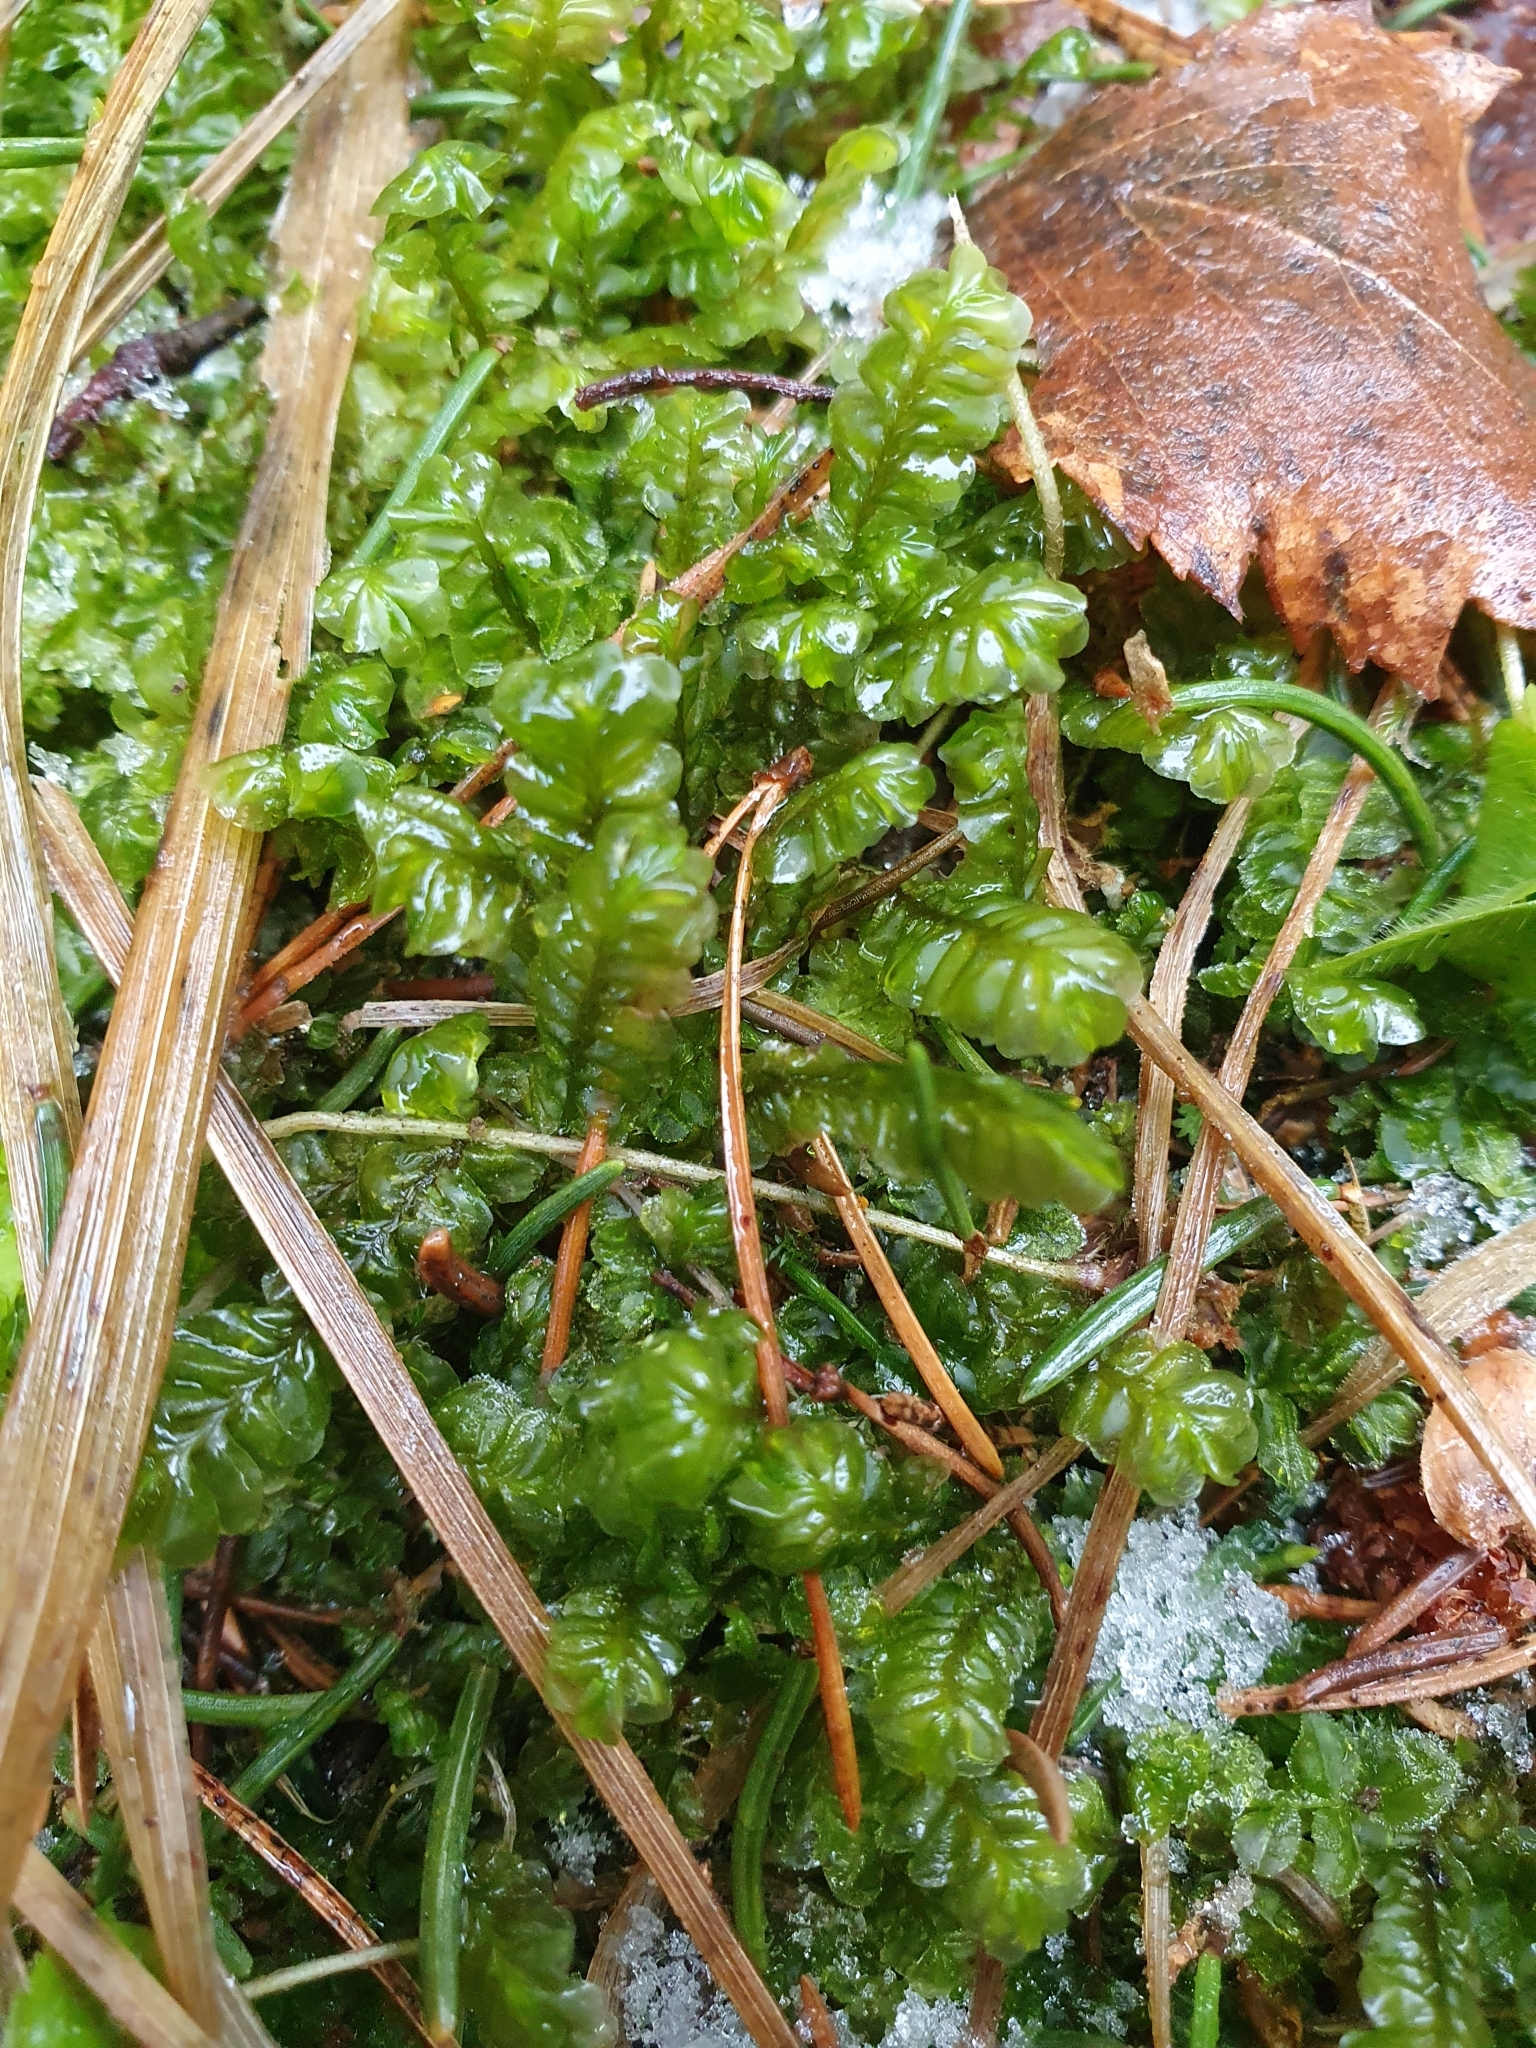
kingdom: Plantae
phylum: Marchantiophyta
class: Jungermanniopsida
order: Jungermanniales
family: Plagiochilaceae
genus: Plagiochila
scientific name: Plagiochila asplenioides
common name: Greater featherwort
